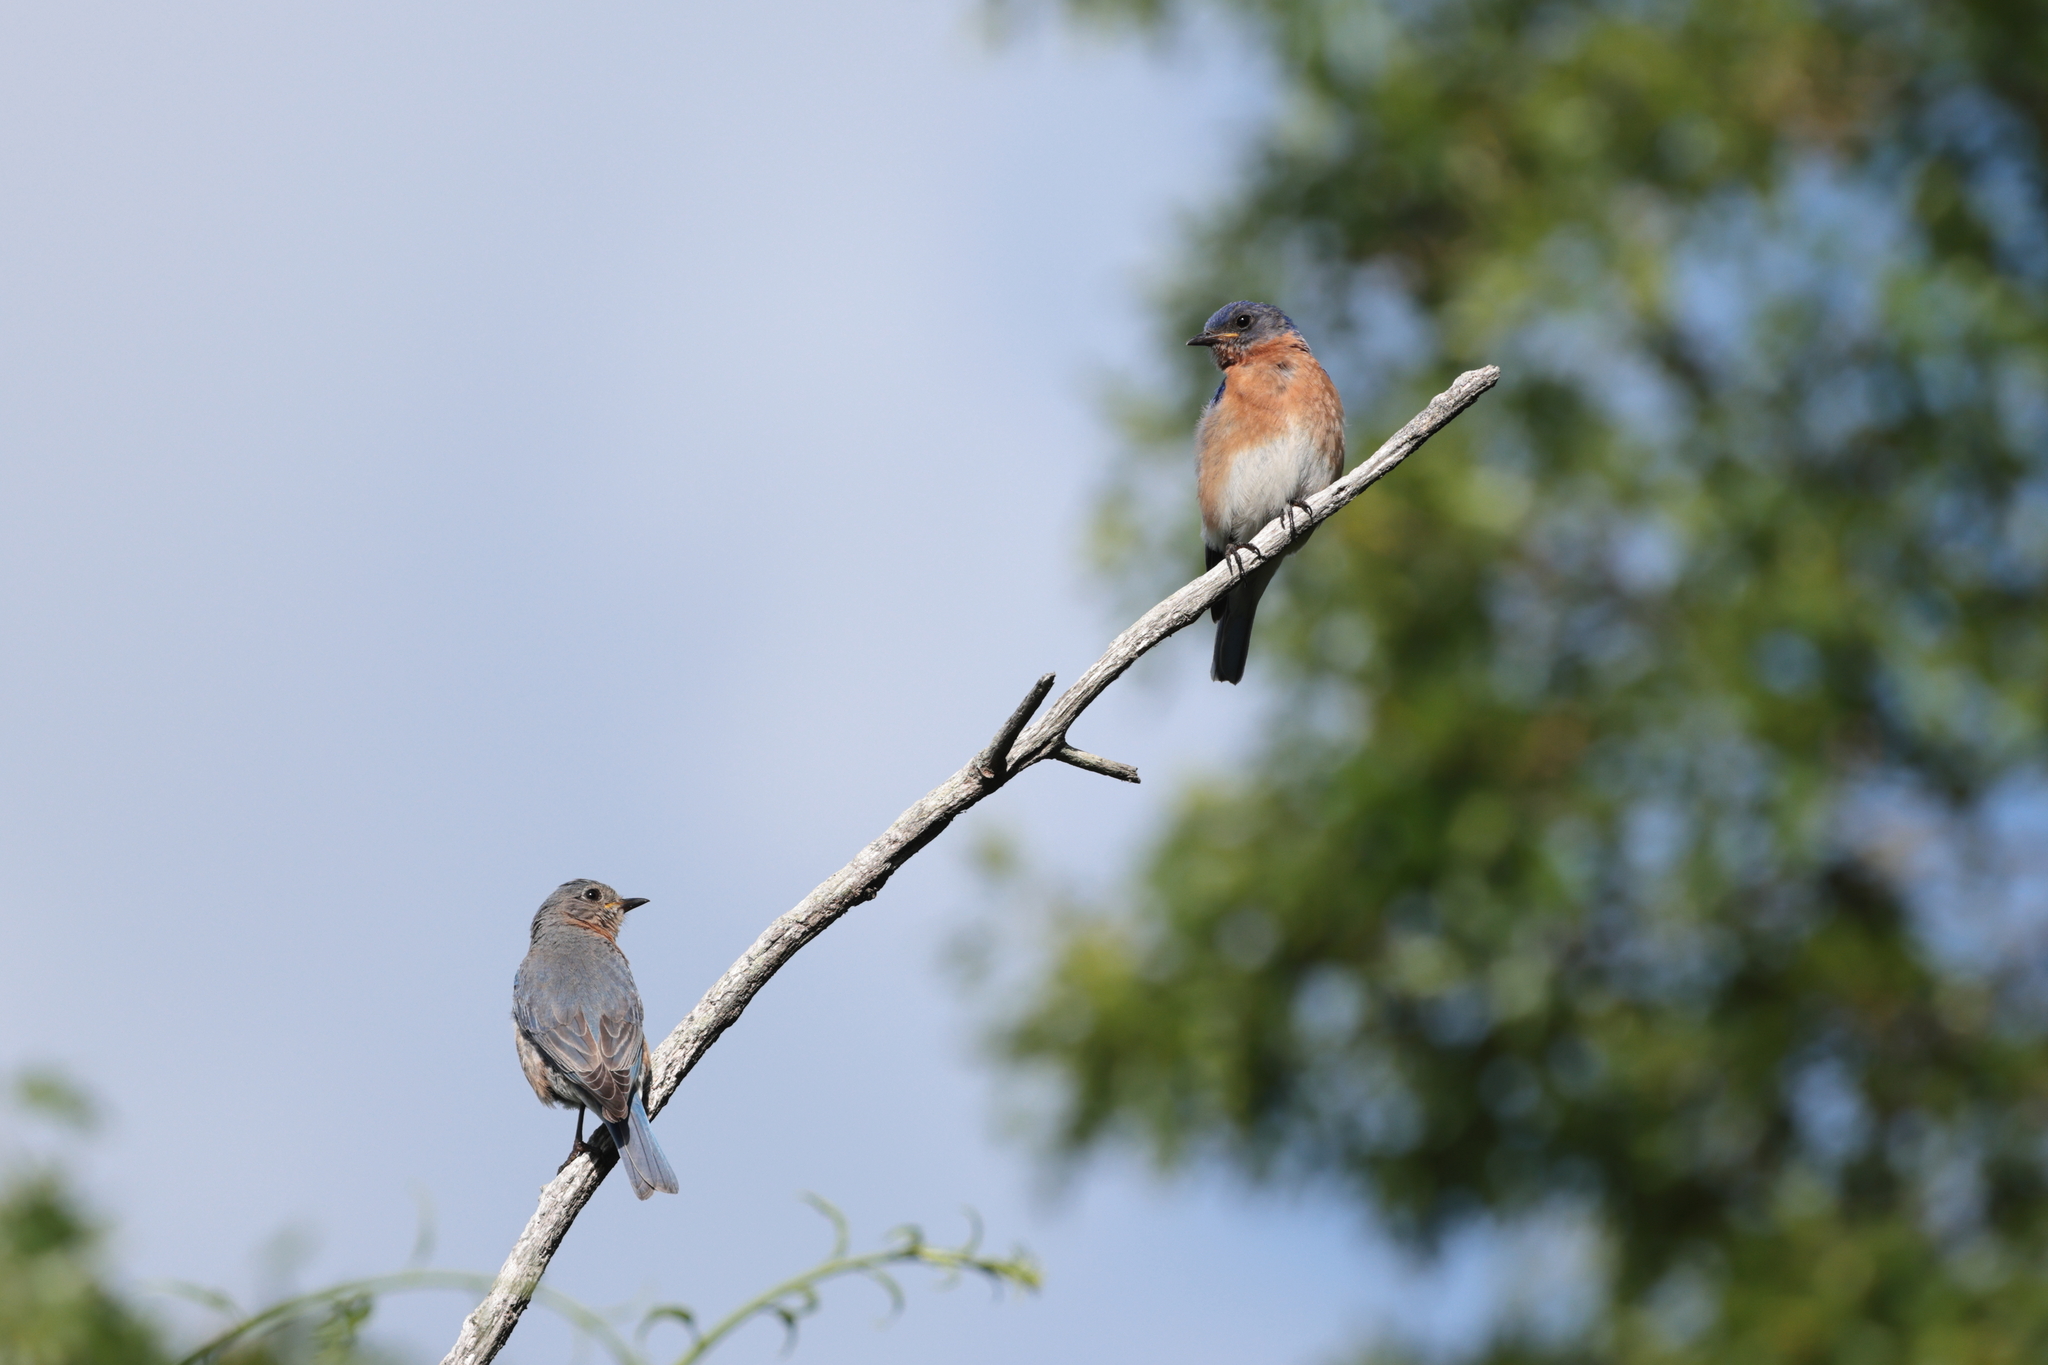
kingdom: Animalia
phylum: Chordata
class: Aves
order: Passeriformes
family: Turdidae
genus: Sialia
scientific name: Sialia sialis
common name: Eastern bluebird
